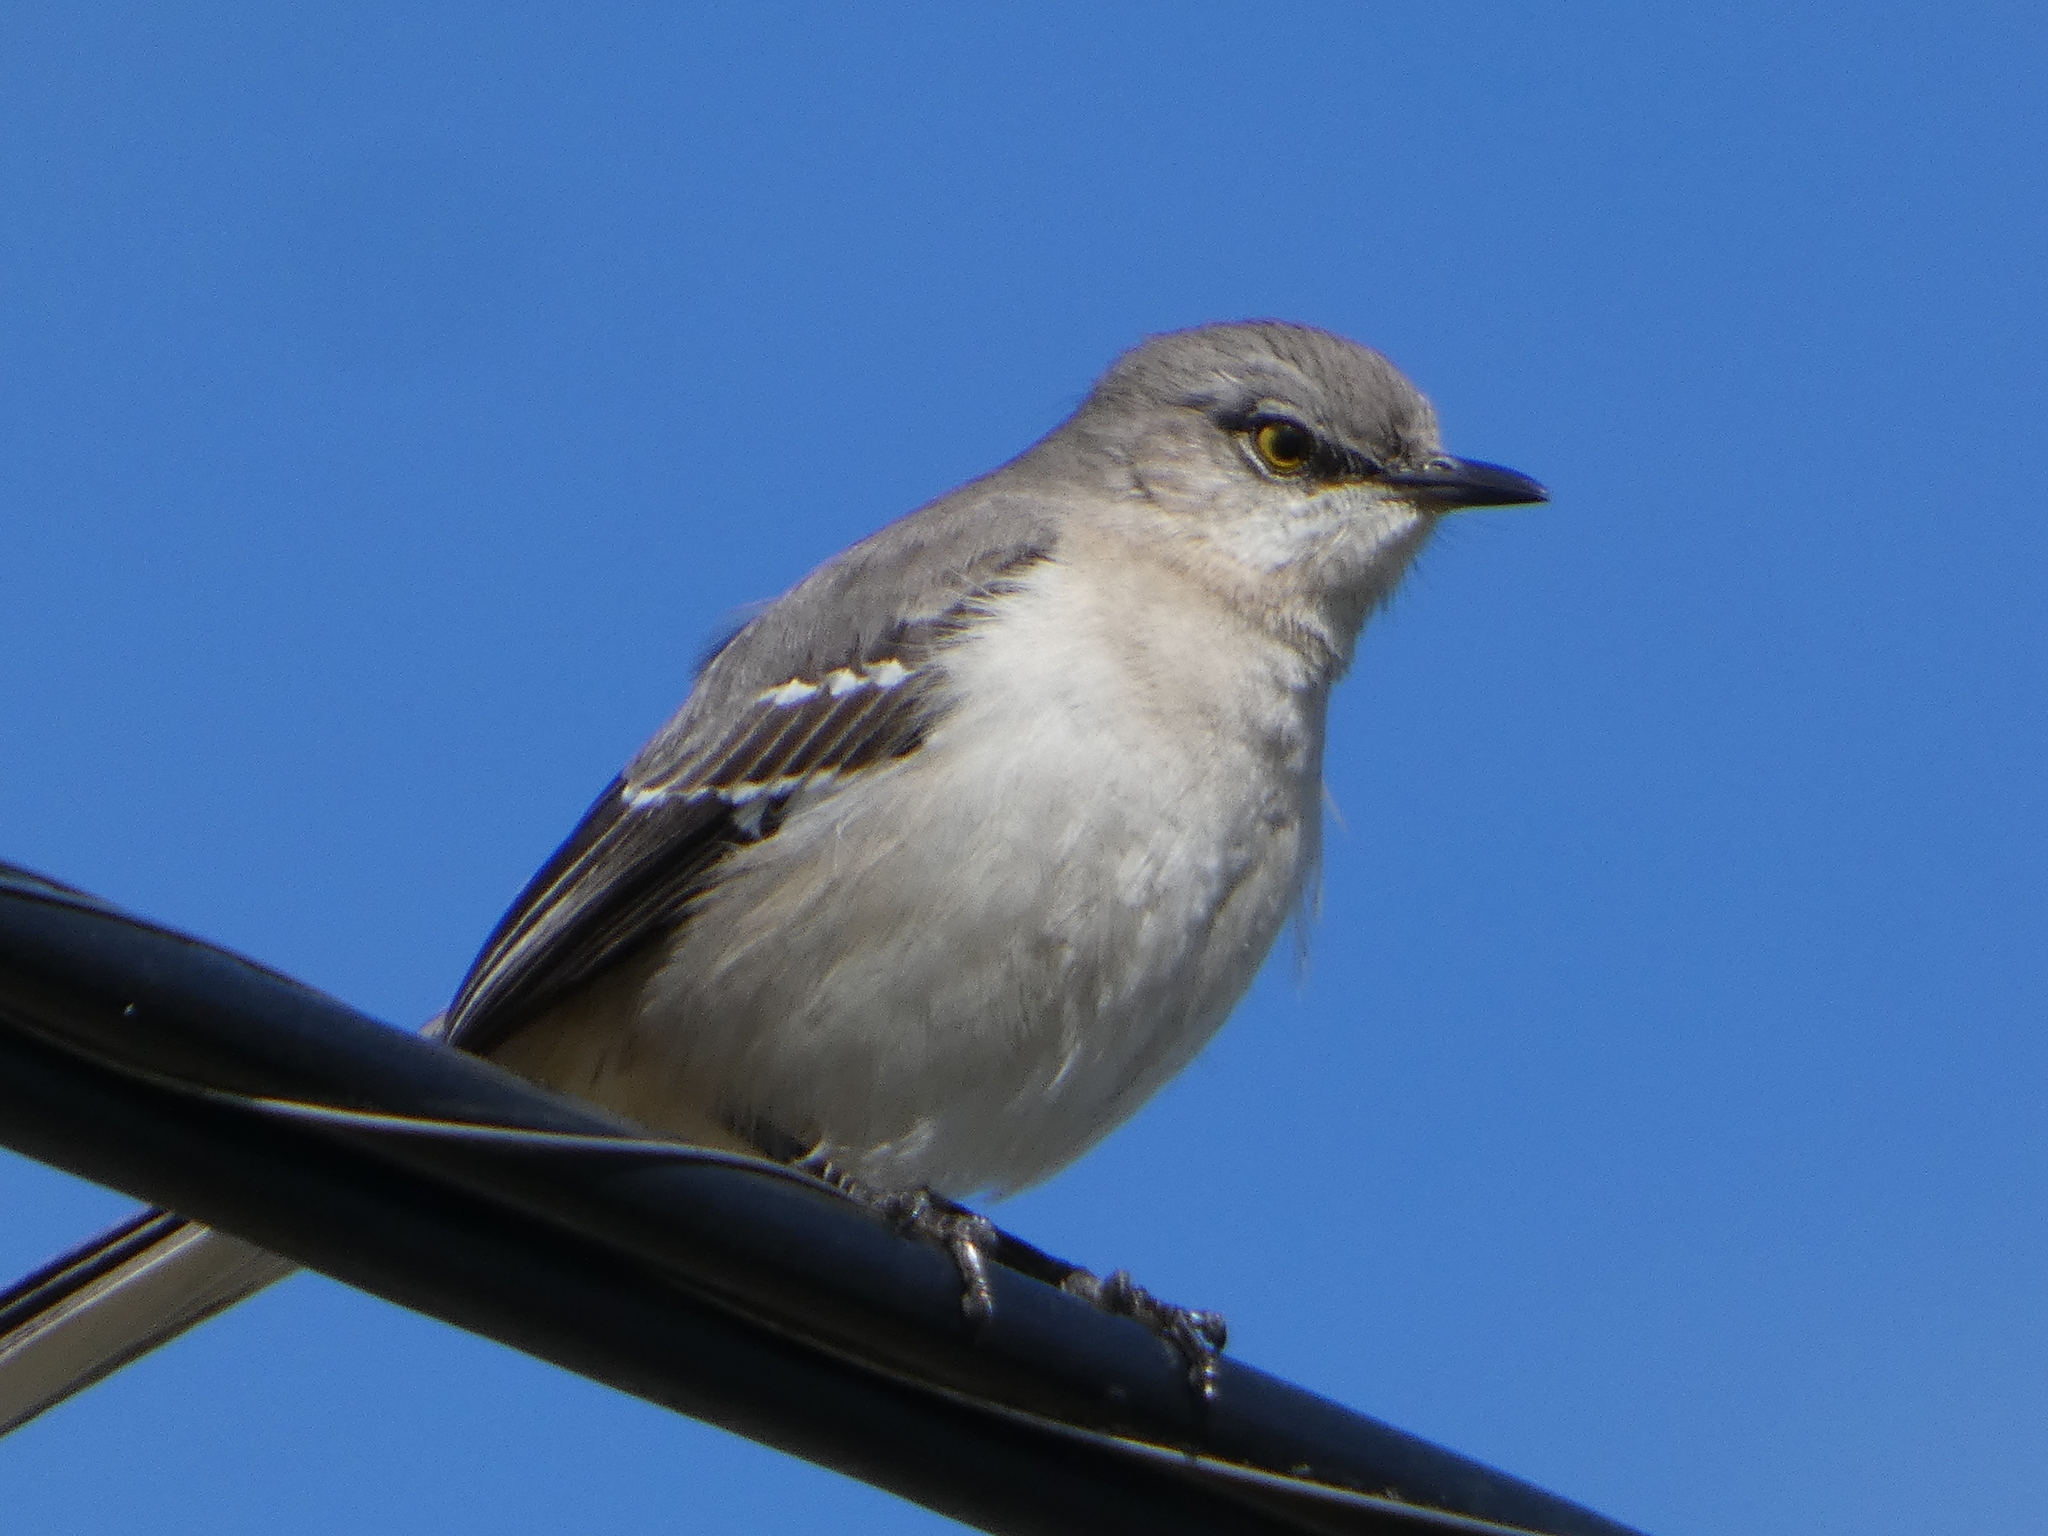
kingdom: Animalia
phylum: Chordata
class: Aves
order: Passeriformes
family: Mimidae
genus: Mimus
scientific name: Mimus polyglottos
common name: Northern mockingbird
